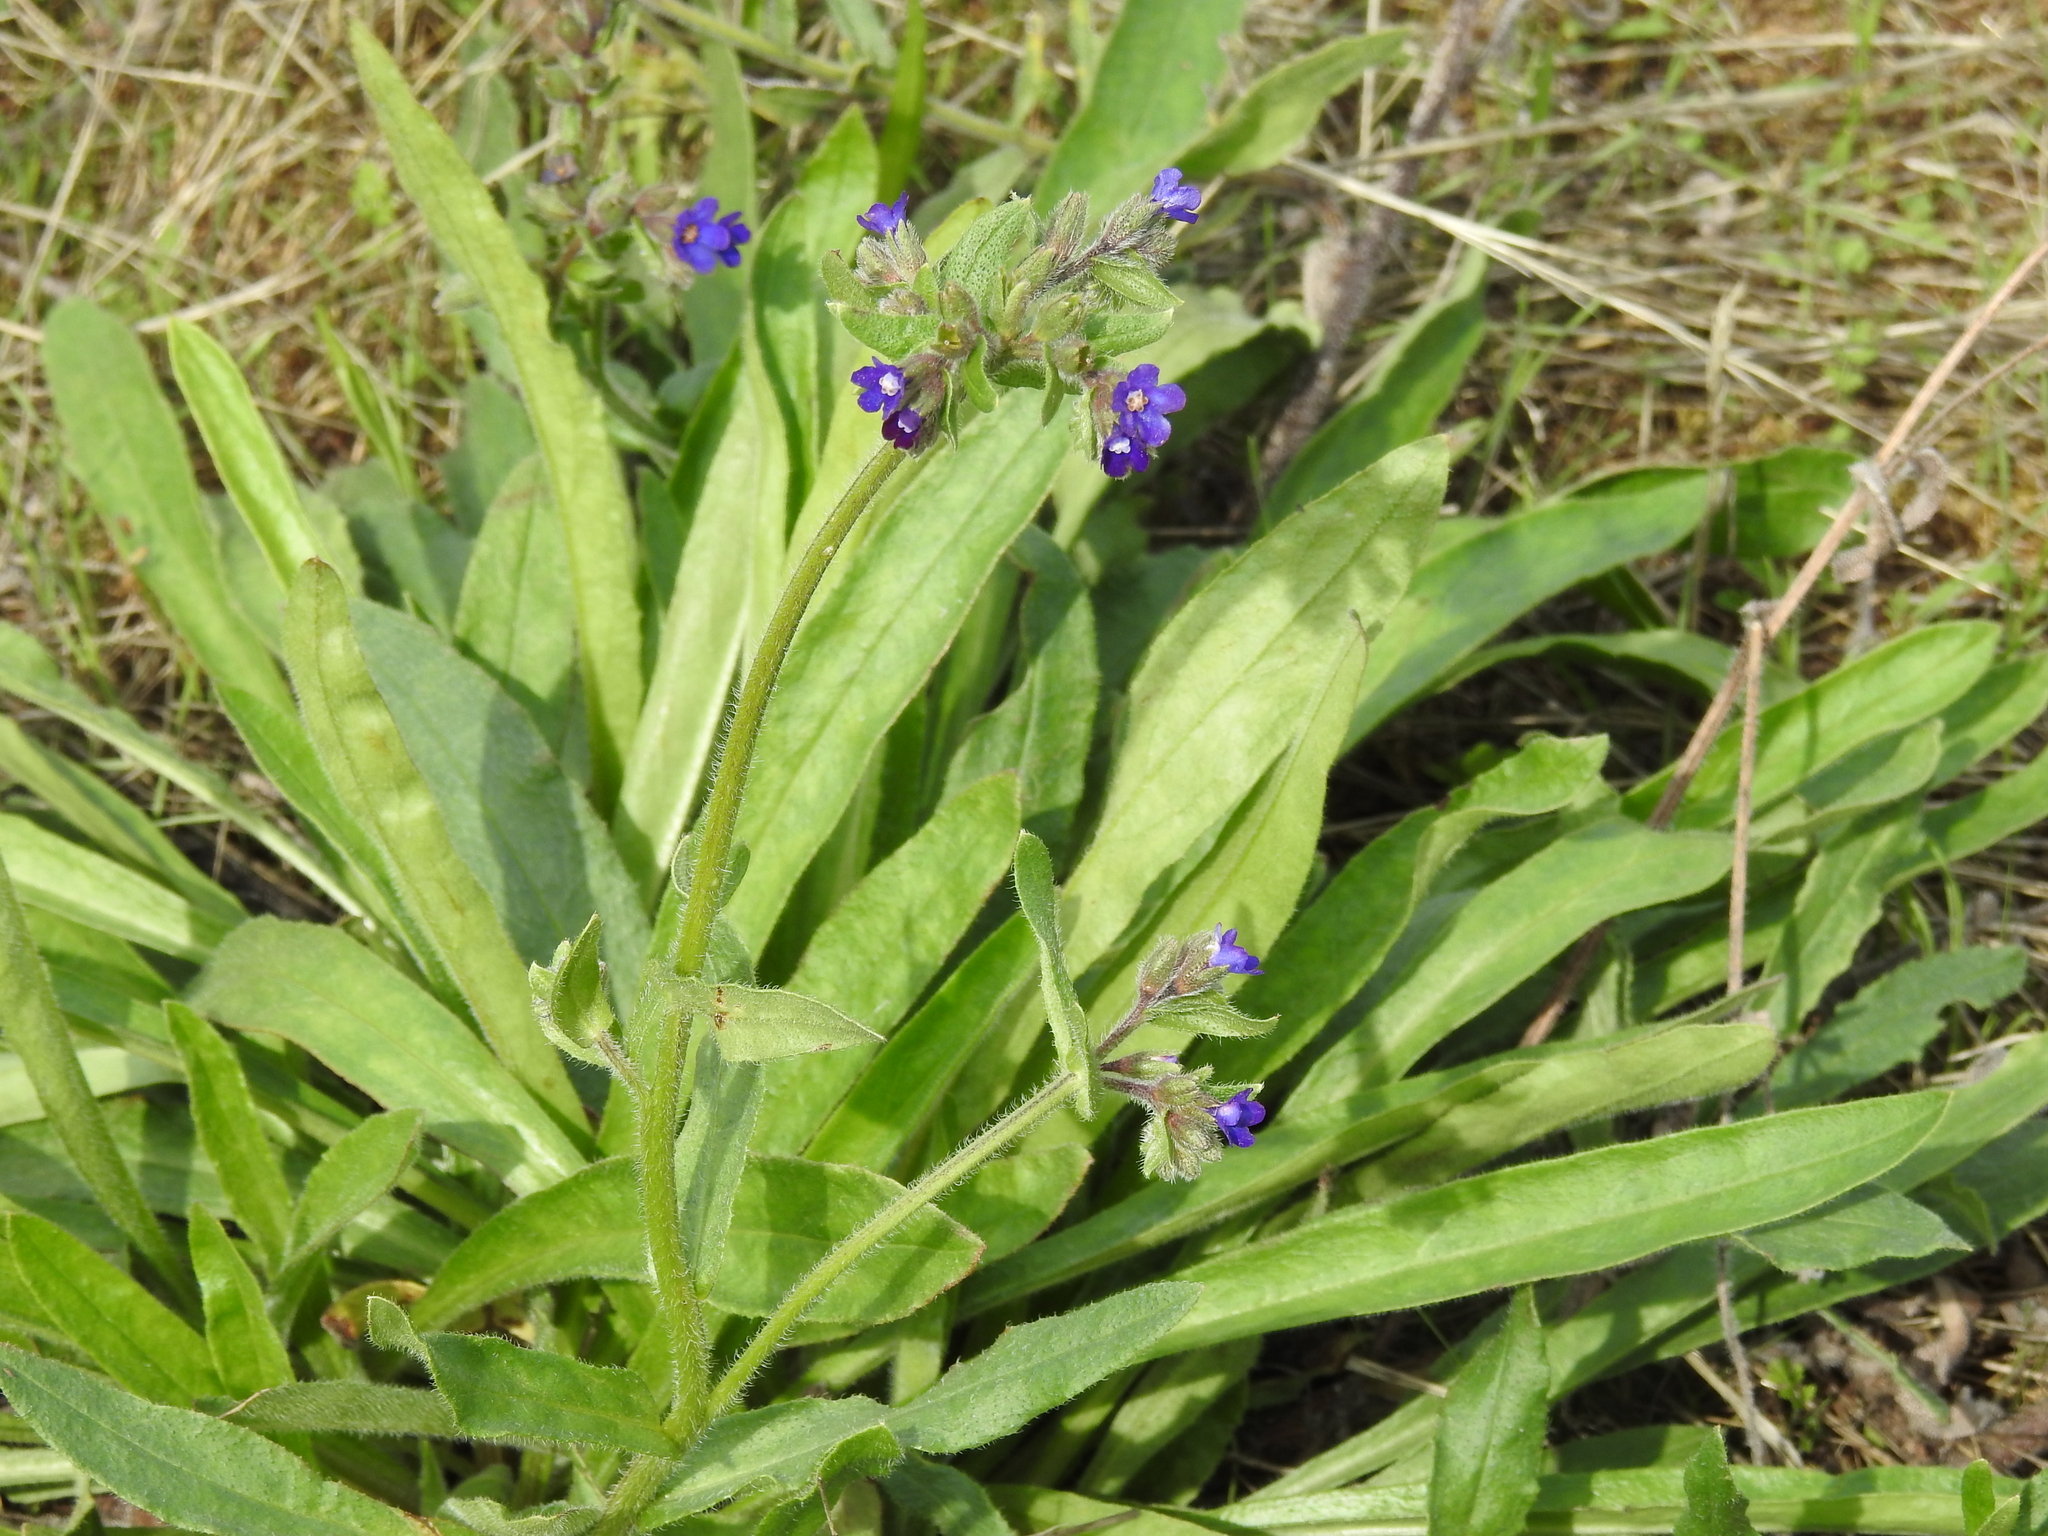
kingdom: Plantae
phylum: Tracheophyta
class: Magnoliopsida
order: Boraginales
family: Boraginaceae
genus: Anchusa
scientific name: Anchusa officinalis
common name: Alkanet
